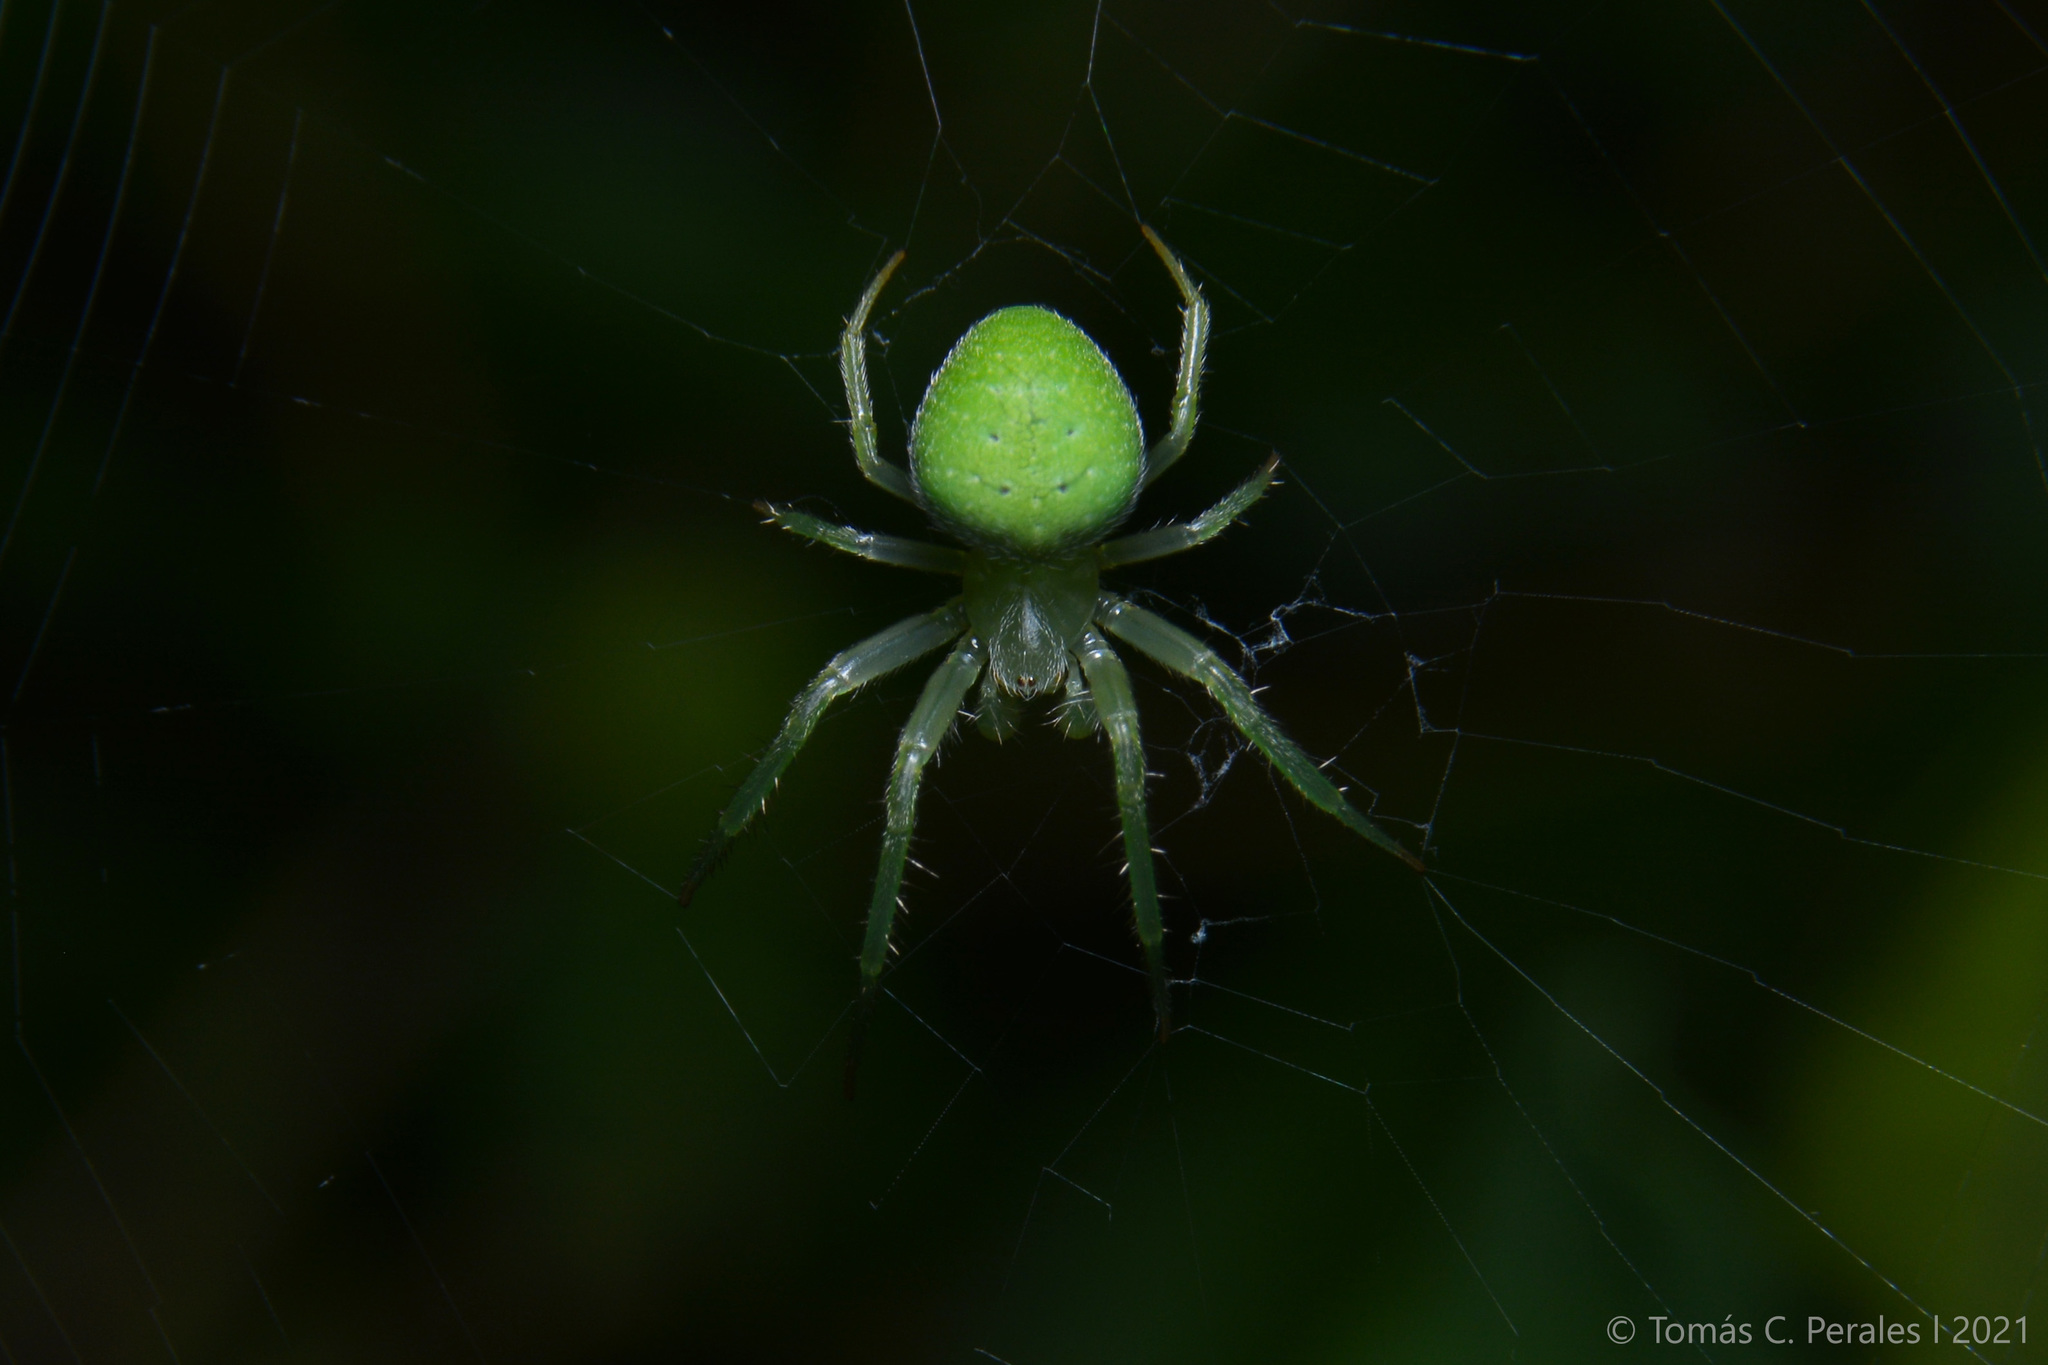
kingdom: Animalia
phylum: Arthropoda
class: Arachnida
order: Araneae
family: Araneidae
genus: Araneus
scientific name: Araneus uniformis
